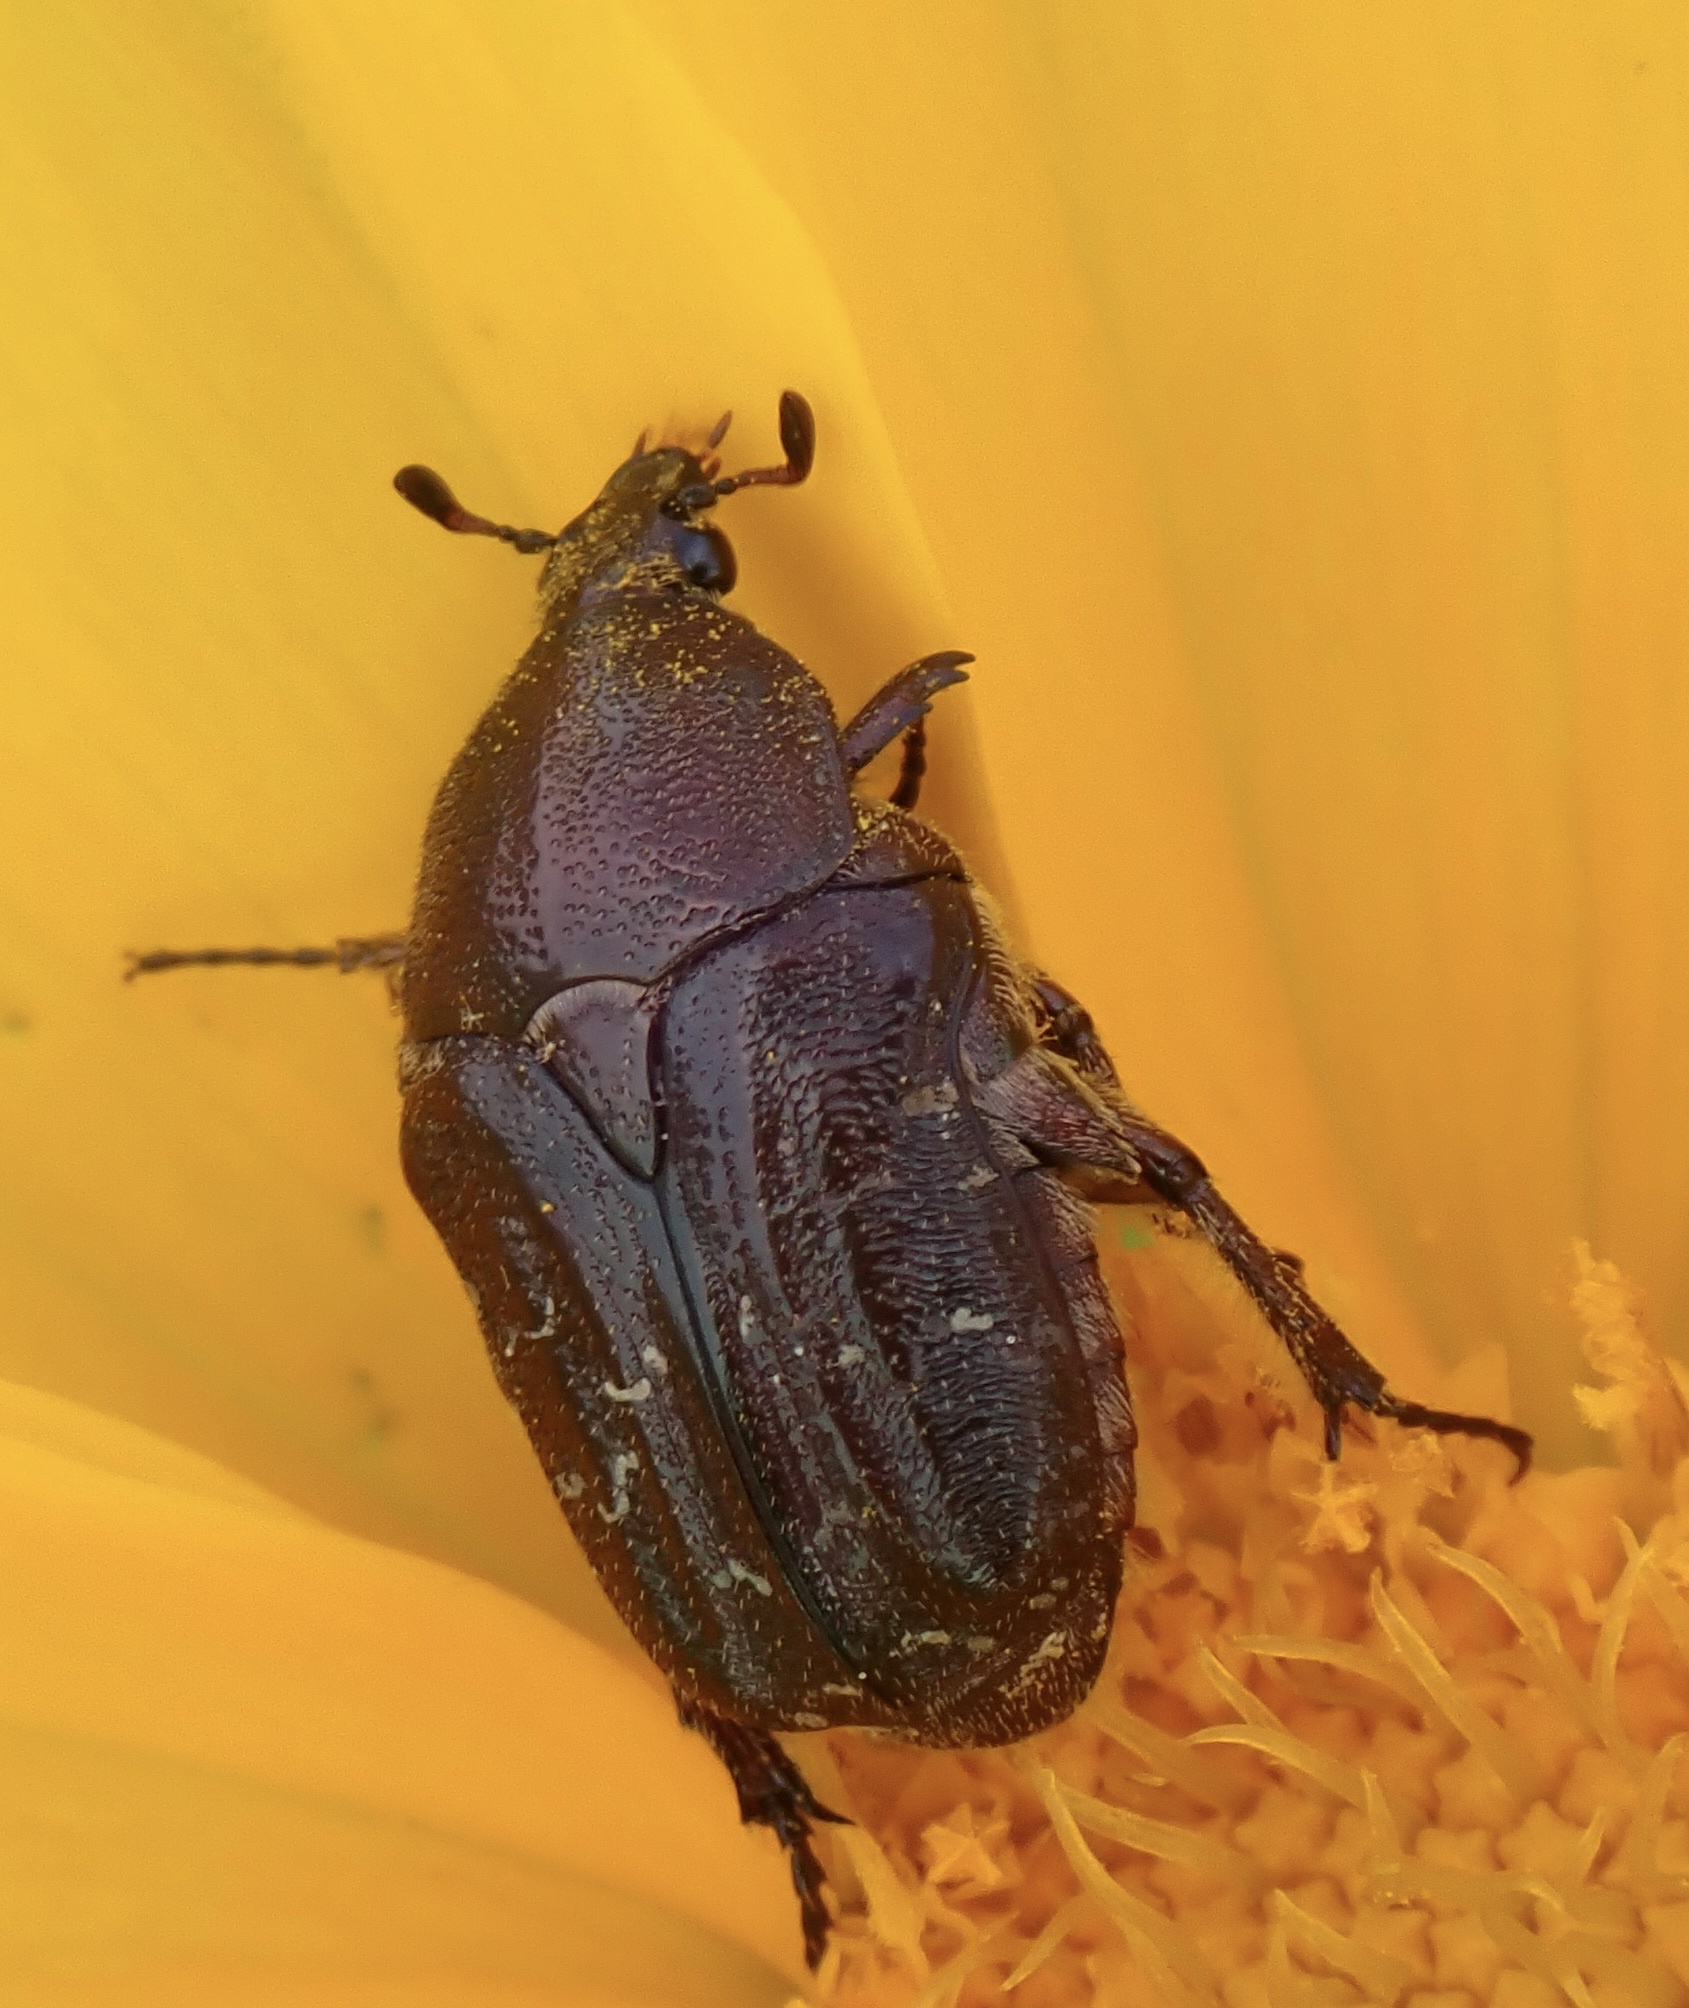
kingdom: Animalia
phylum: Arthropoda
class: Insecta
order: Coleoptera
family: Scarabaeidae
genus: Euphoria
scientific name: Euphoria sepulcralis
